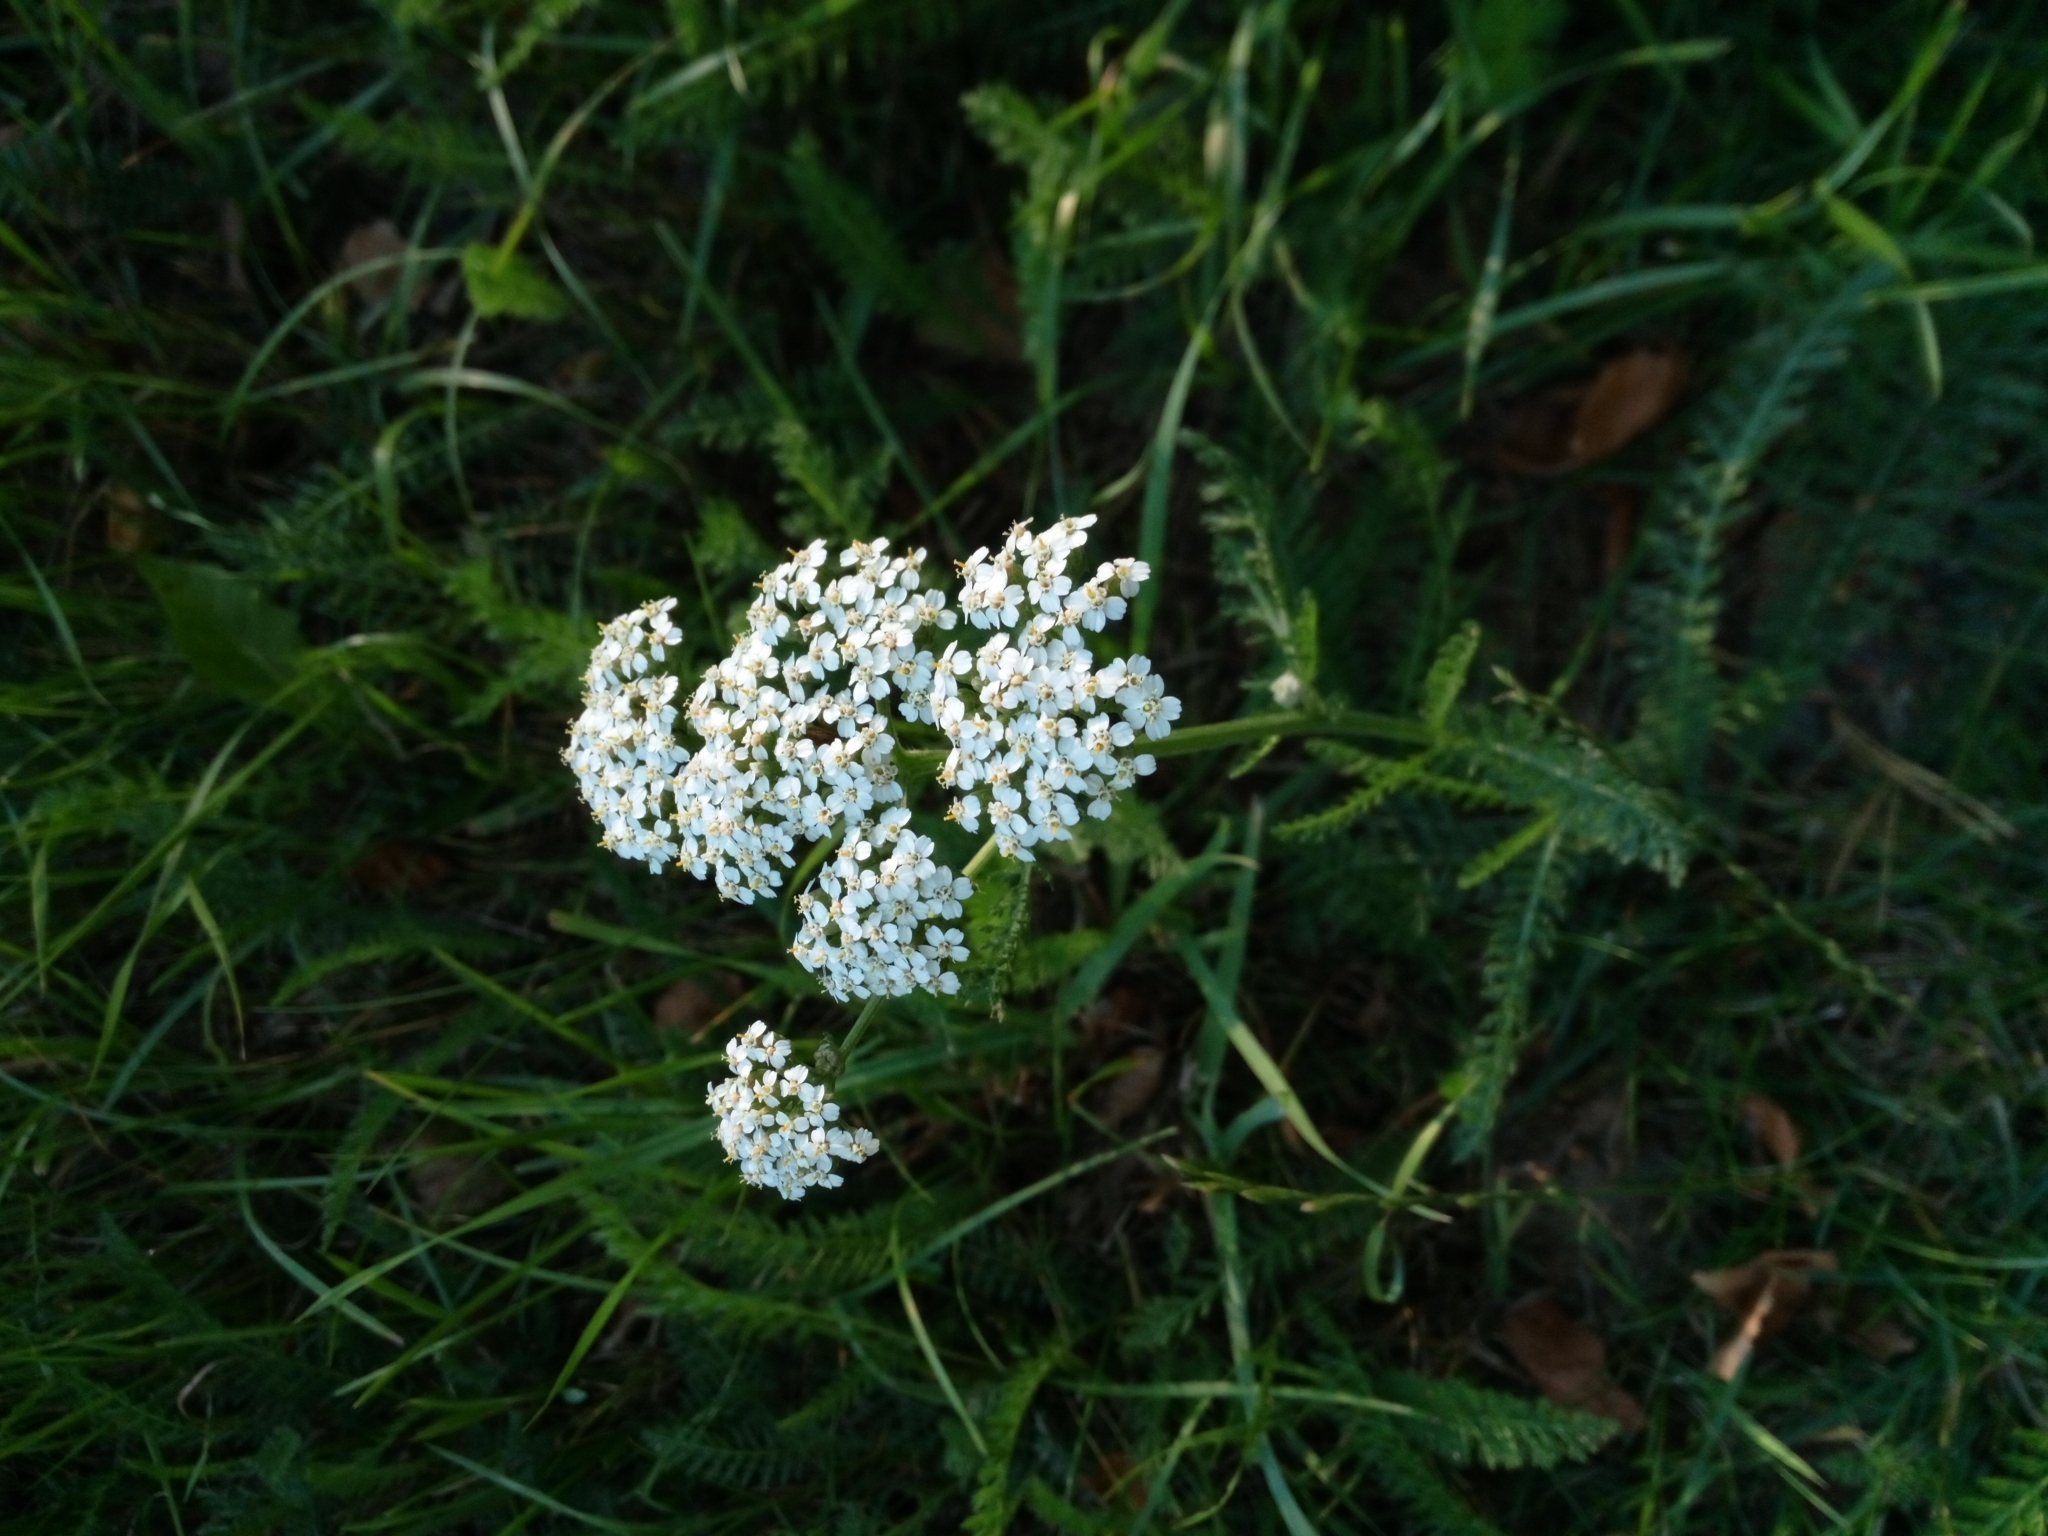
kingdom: Plantae
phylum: Tracheophyta
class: Magnoliopsida
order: Asterales
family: Asteraceae
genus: Achillea
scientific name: Achillea millefolium
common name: Yarrow
